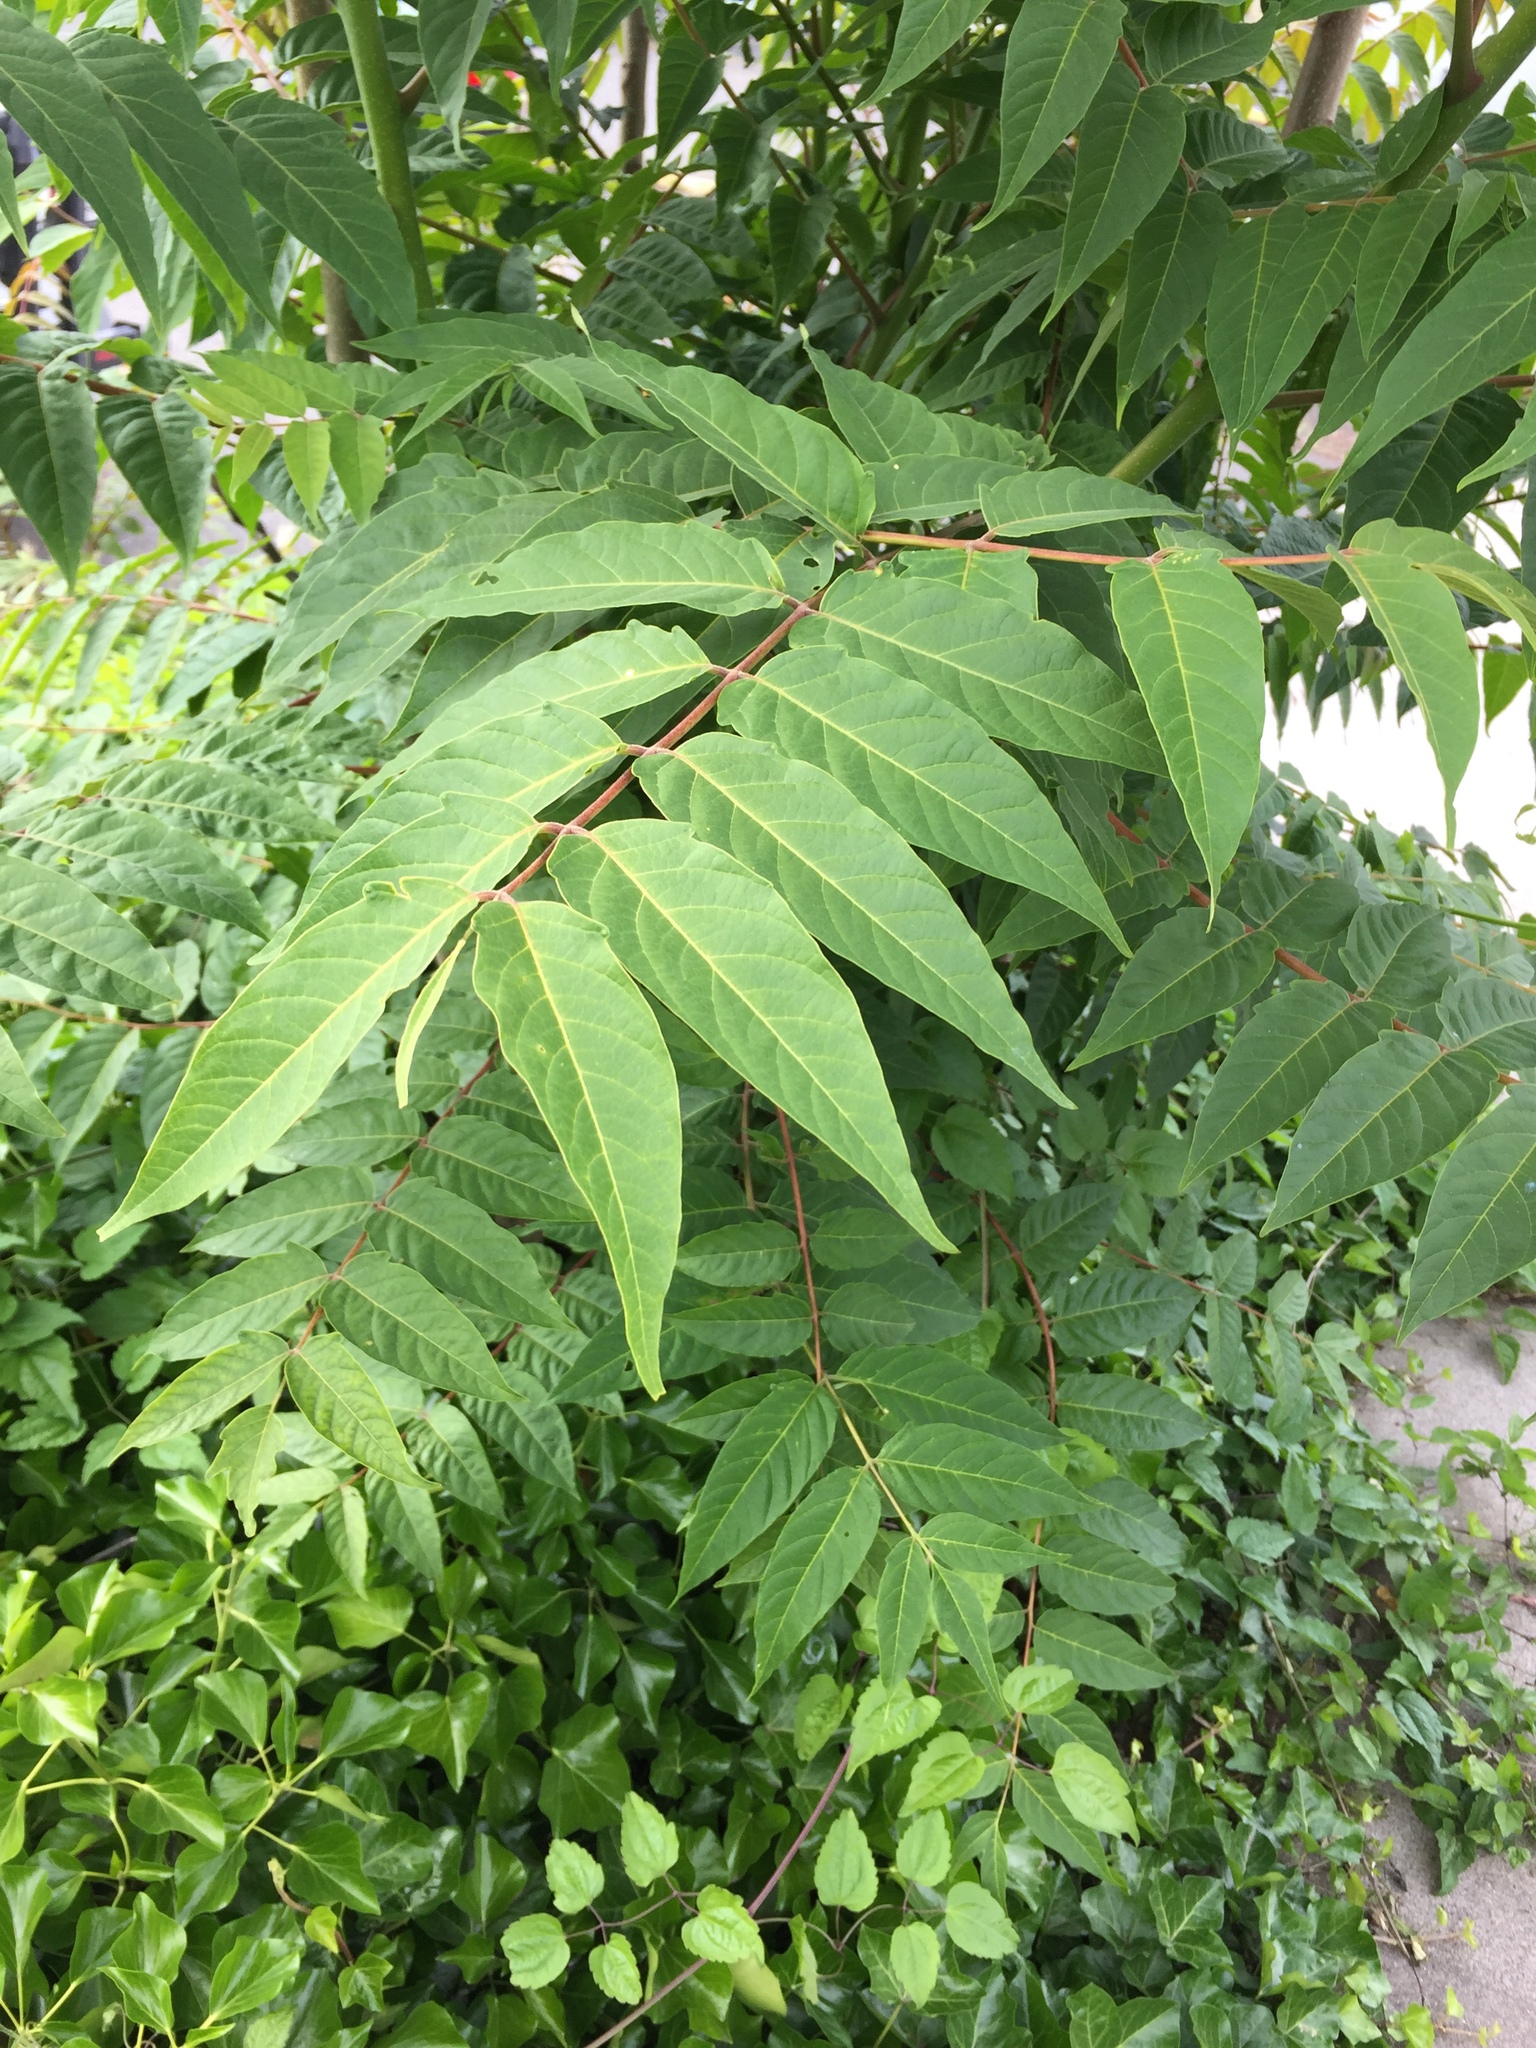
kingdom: Plantae
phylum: Tracheophyta
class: Magnoliopsida
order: Sapindales
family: Simaroubaceae
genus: Ailanthus
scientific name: Ailanthus altissima
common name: Tree-of-heaven
